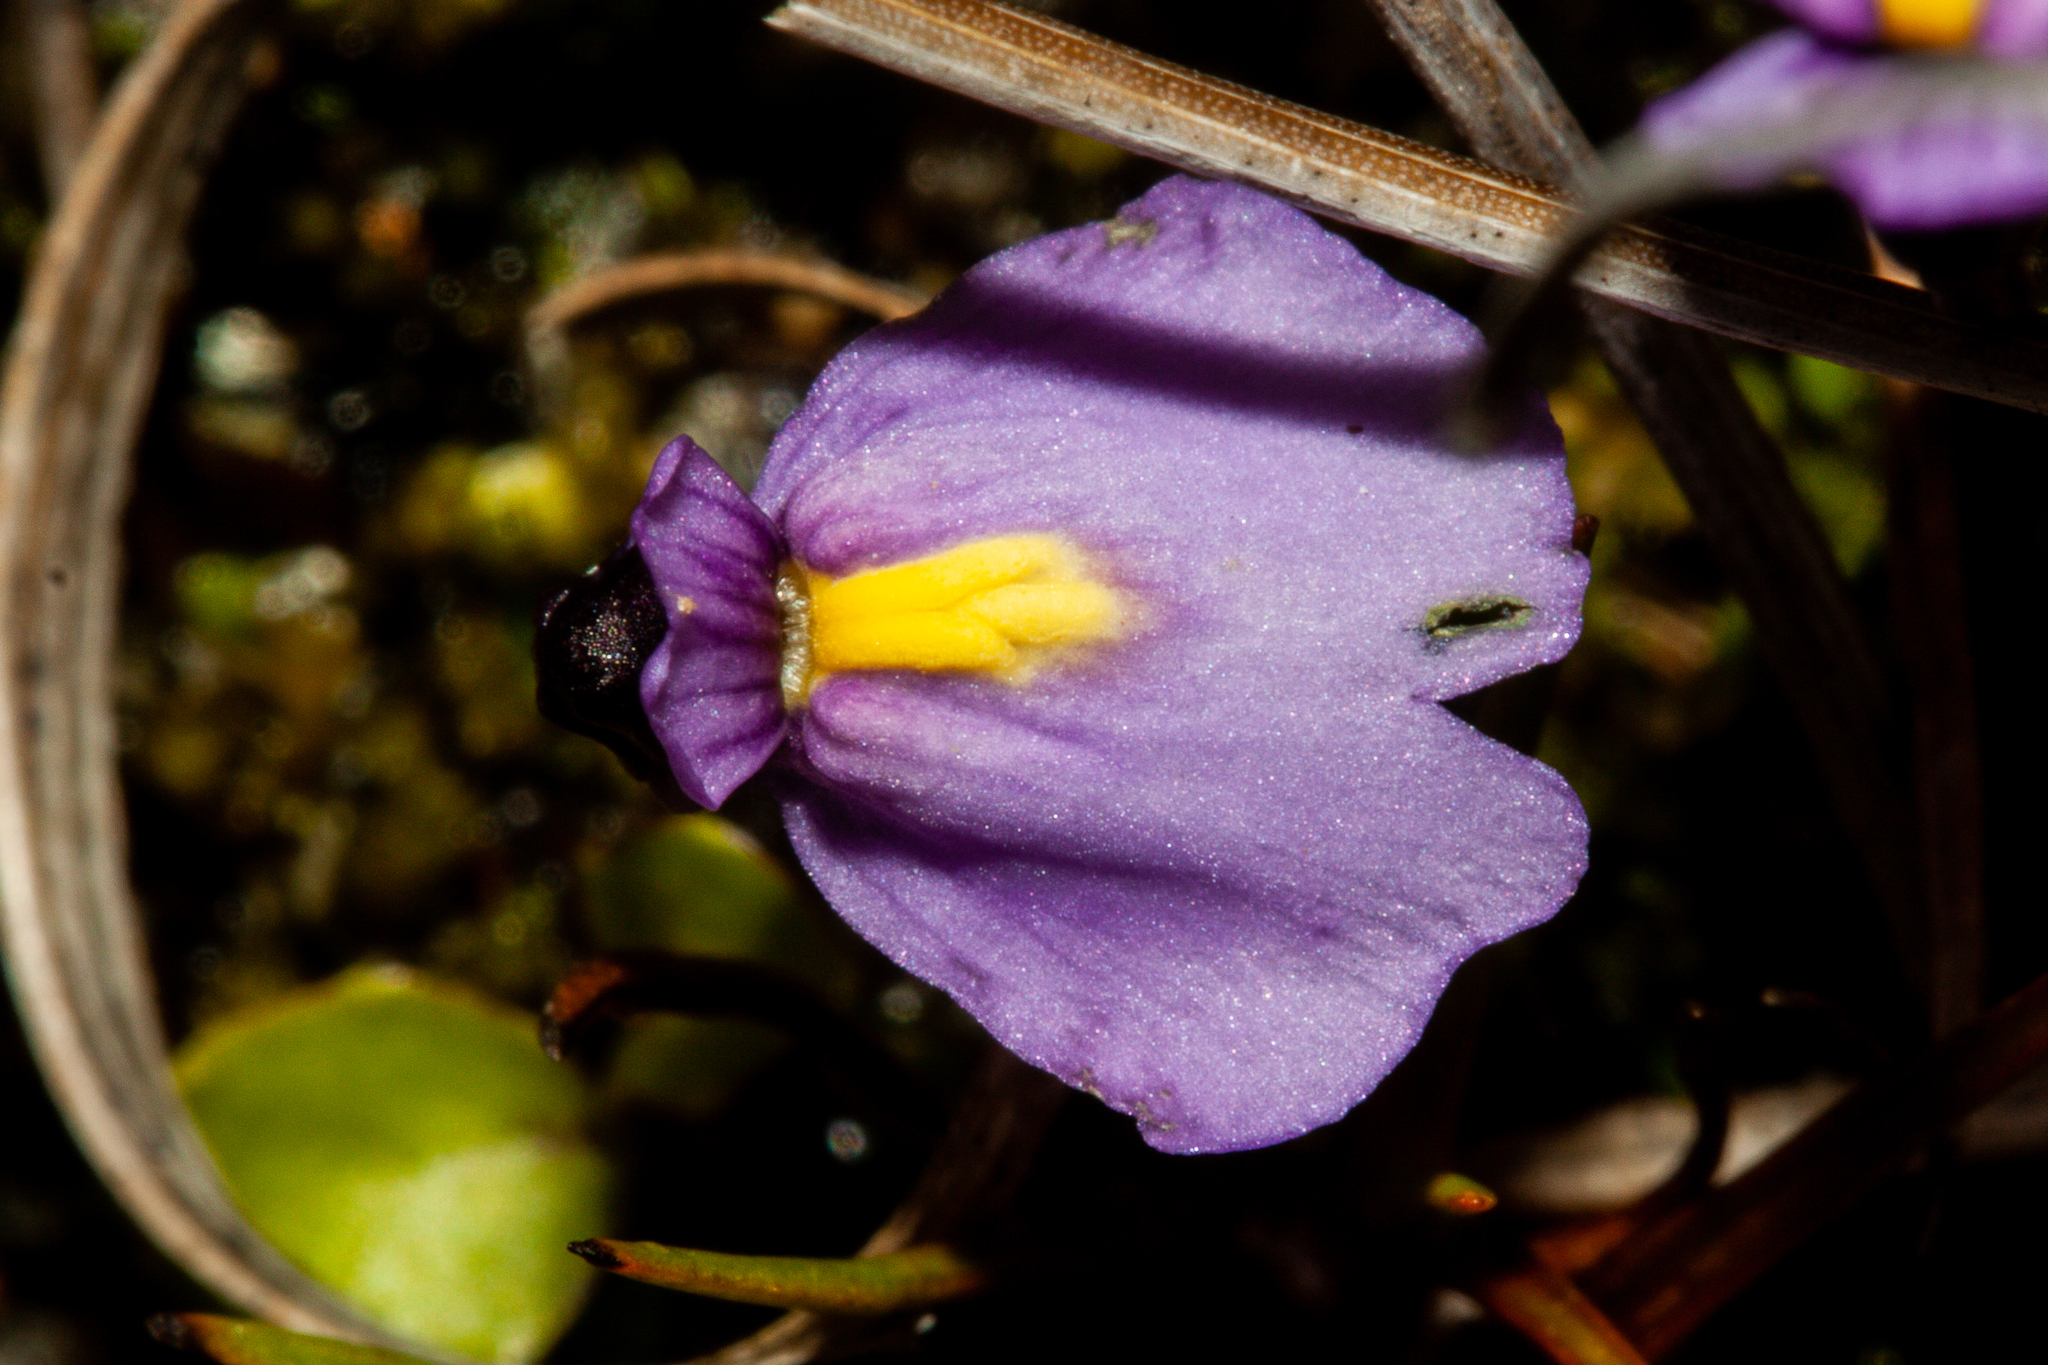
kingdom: Plantae
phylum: Tracheophyta
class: Magnoliopsida
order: Lamiales
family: Lentibulariaceae
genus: Utricularia
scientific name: Utricularia dichotoma
